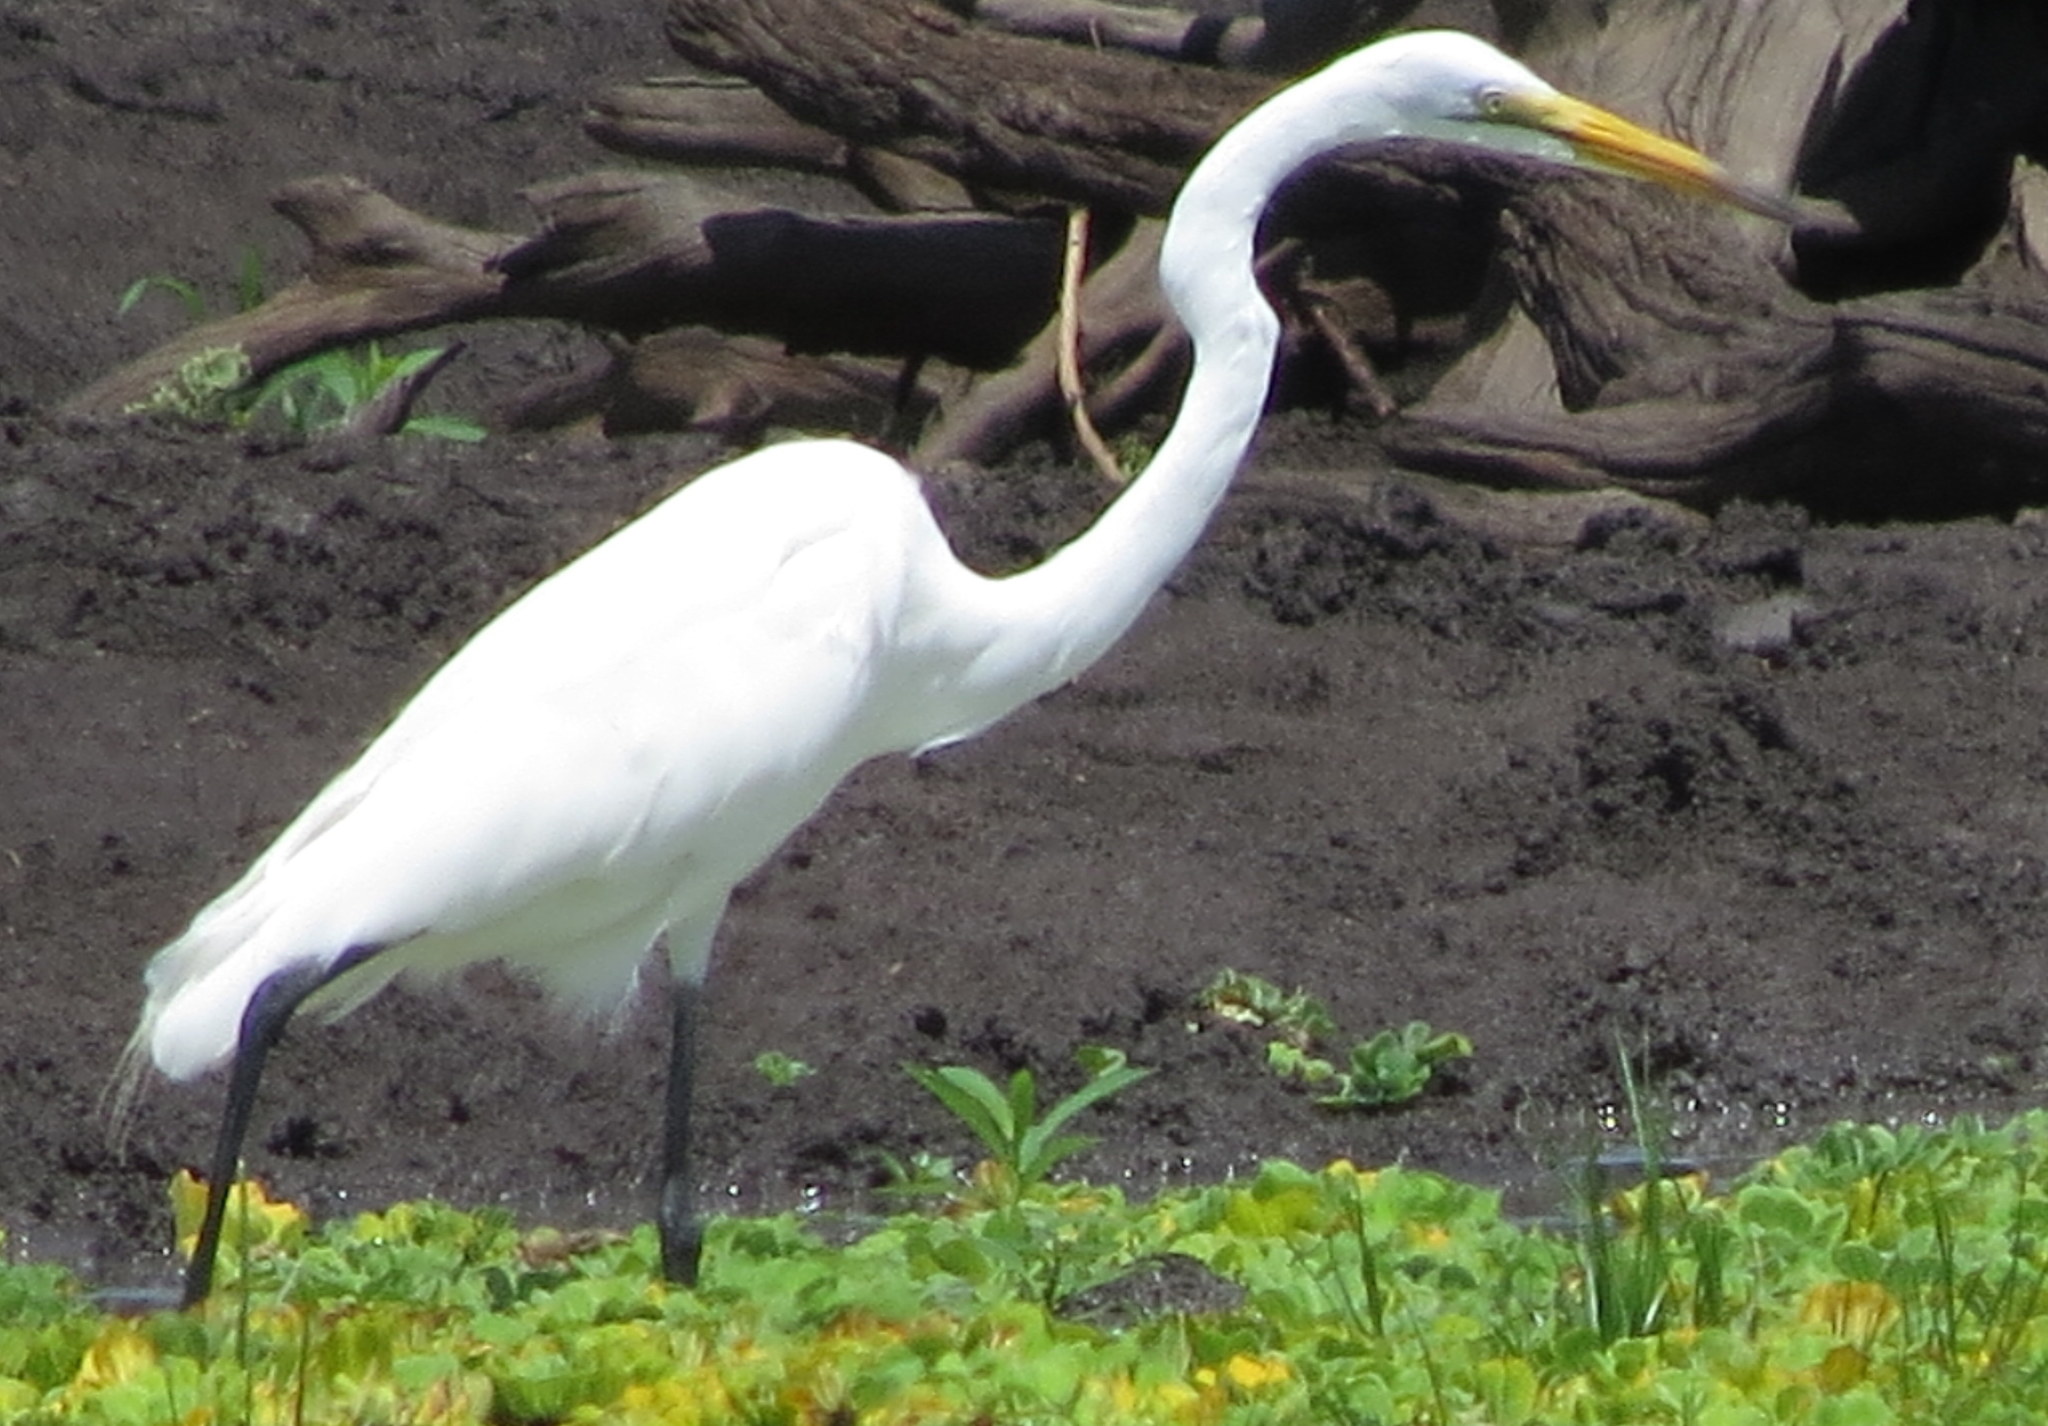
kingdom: Animalia
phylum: Chordata
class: Aves
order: Pelecaniformes
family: Ardeidae
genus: Ardea
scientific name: Ardea alba
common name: Great egret
